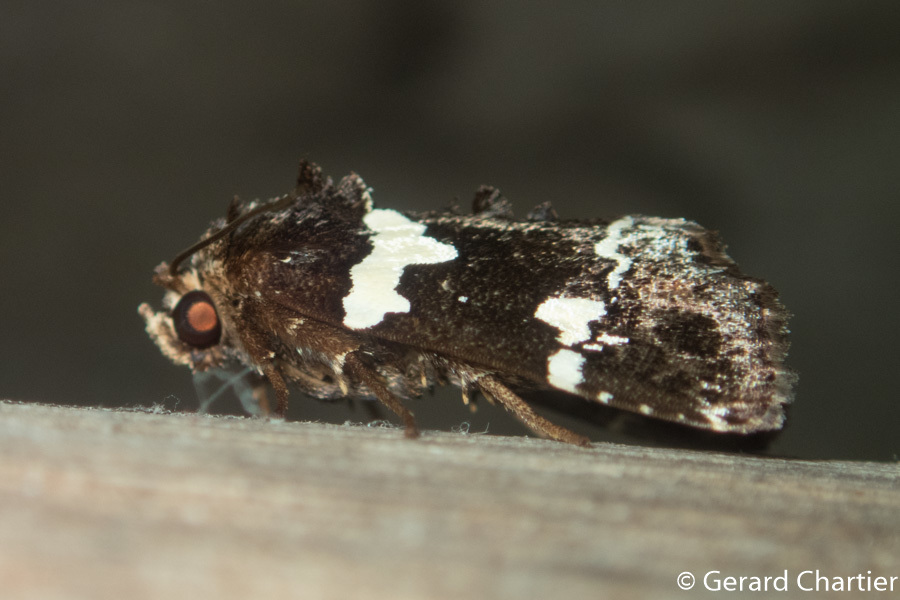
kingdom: Animalia
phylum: Arthropoda
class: Insecta
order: Lepidoptera
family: Noctuidae
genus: Borbotana
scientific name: Borbotana nivifascia
